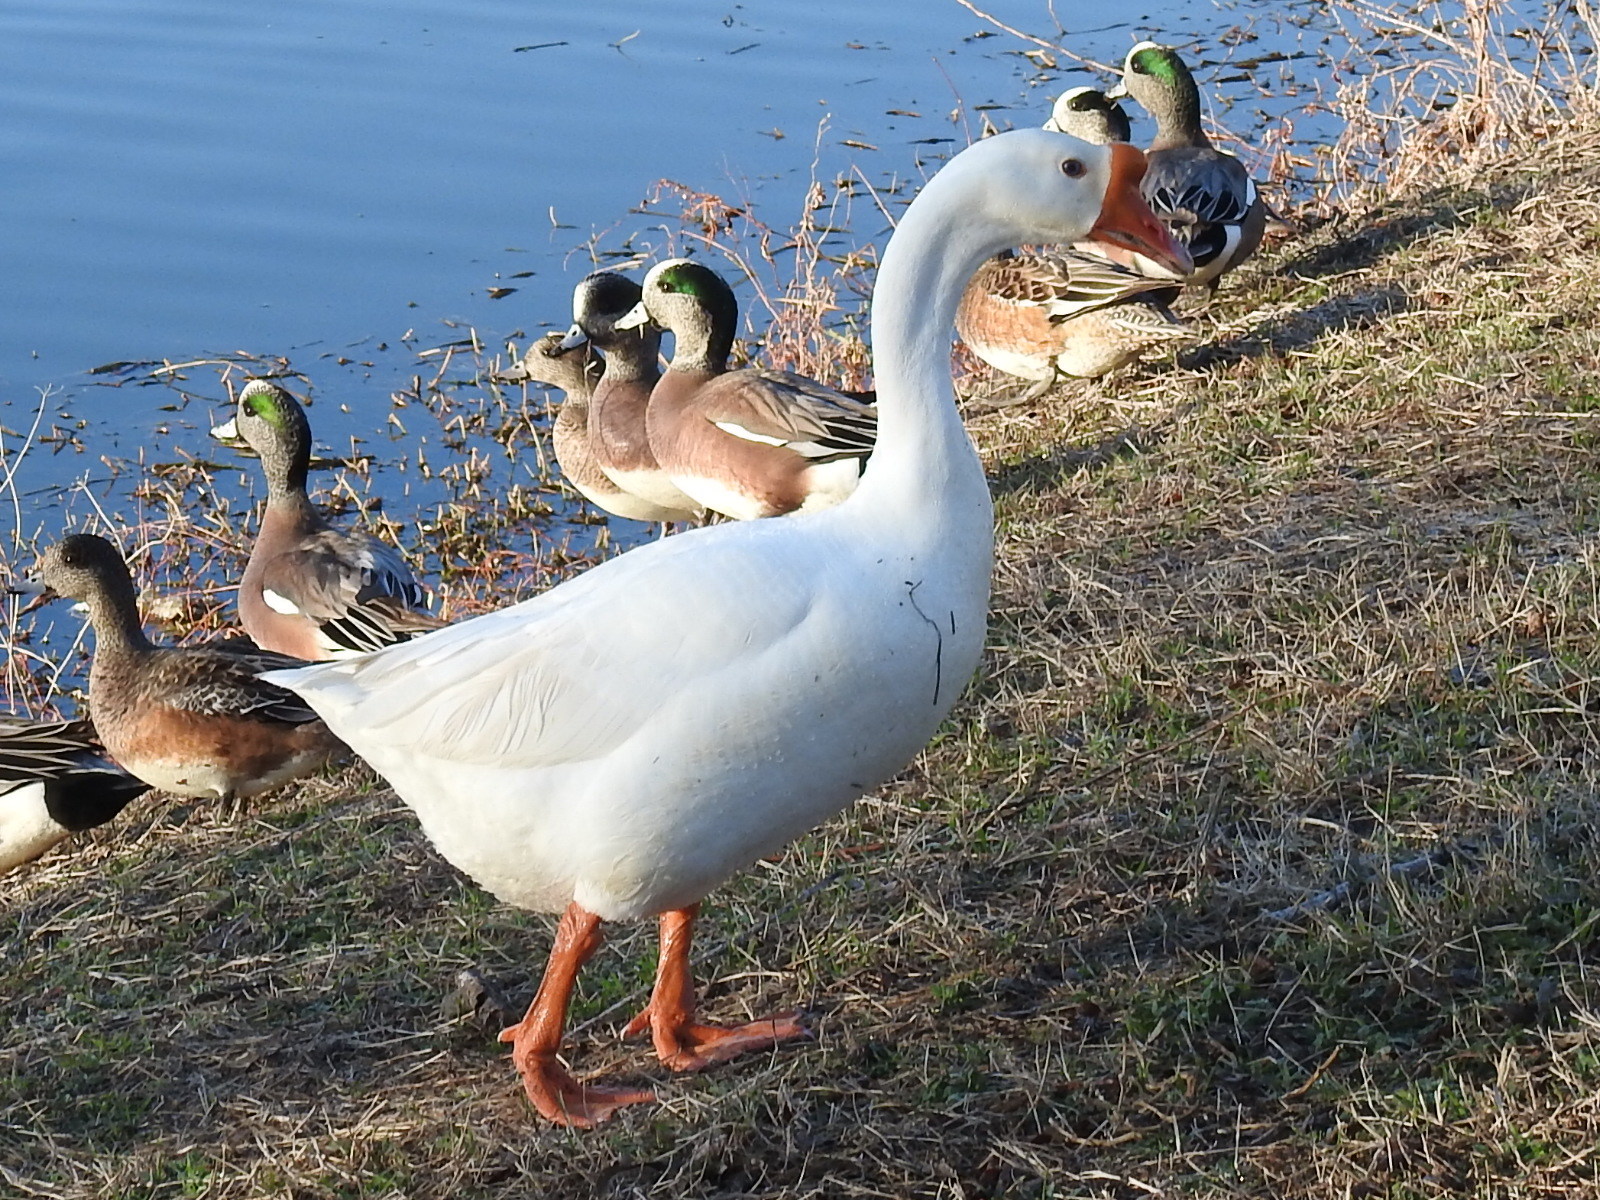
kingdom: Animalia
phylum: Chordata
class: Aves
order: Anseriformes
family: Anatidae
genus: Anser
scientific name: Anser cygnoides
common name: Swan goose
